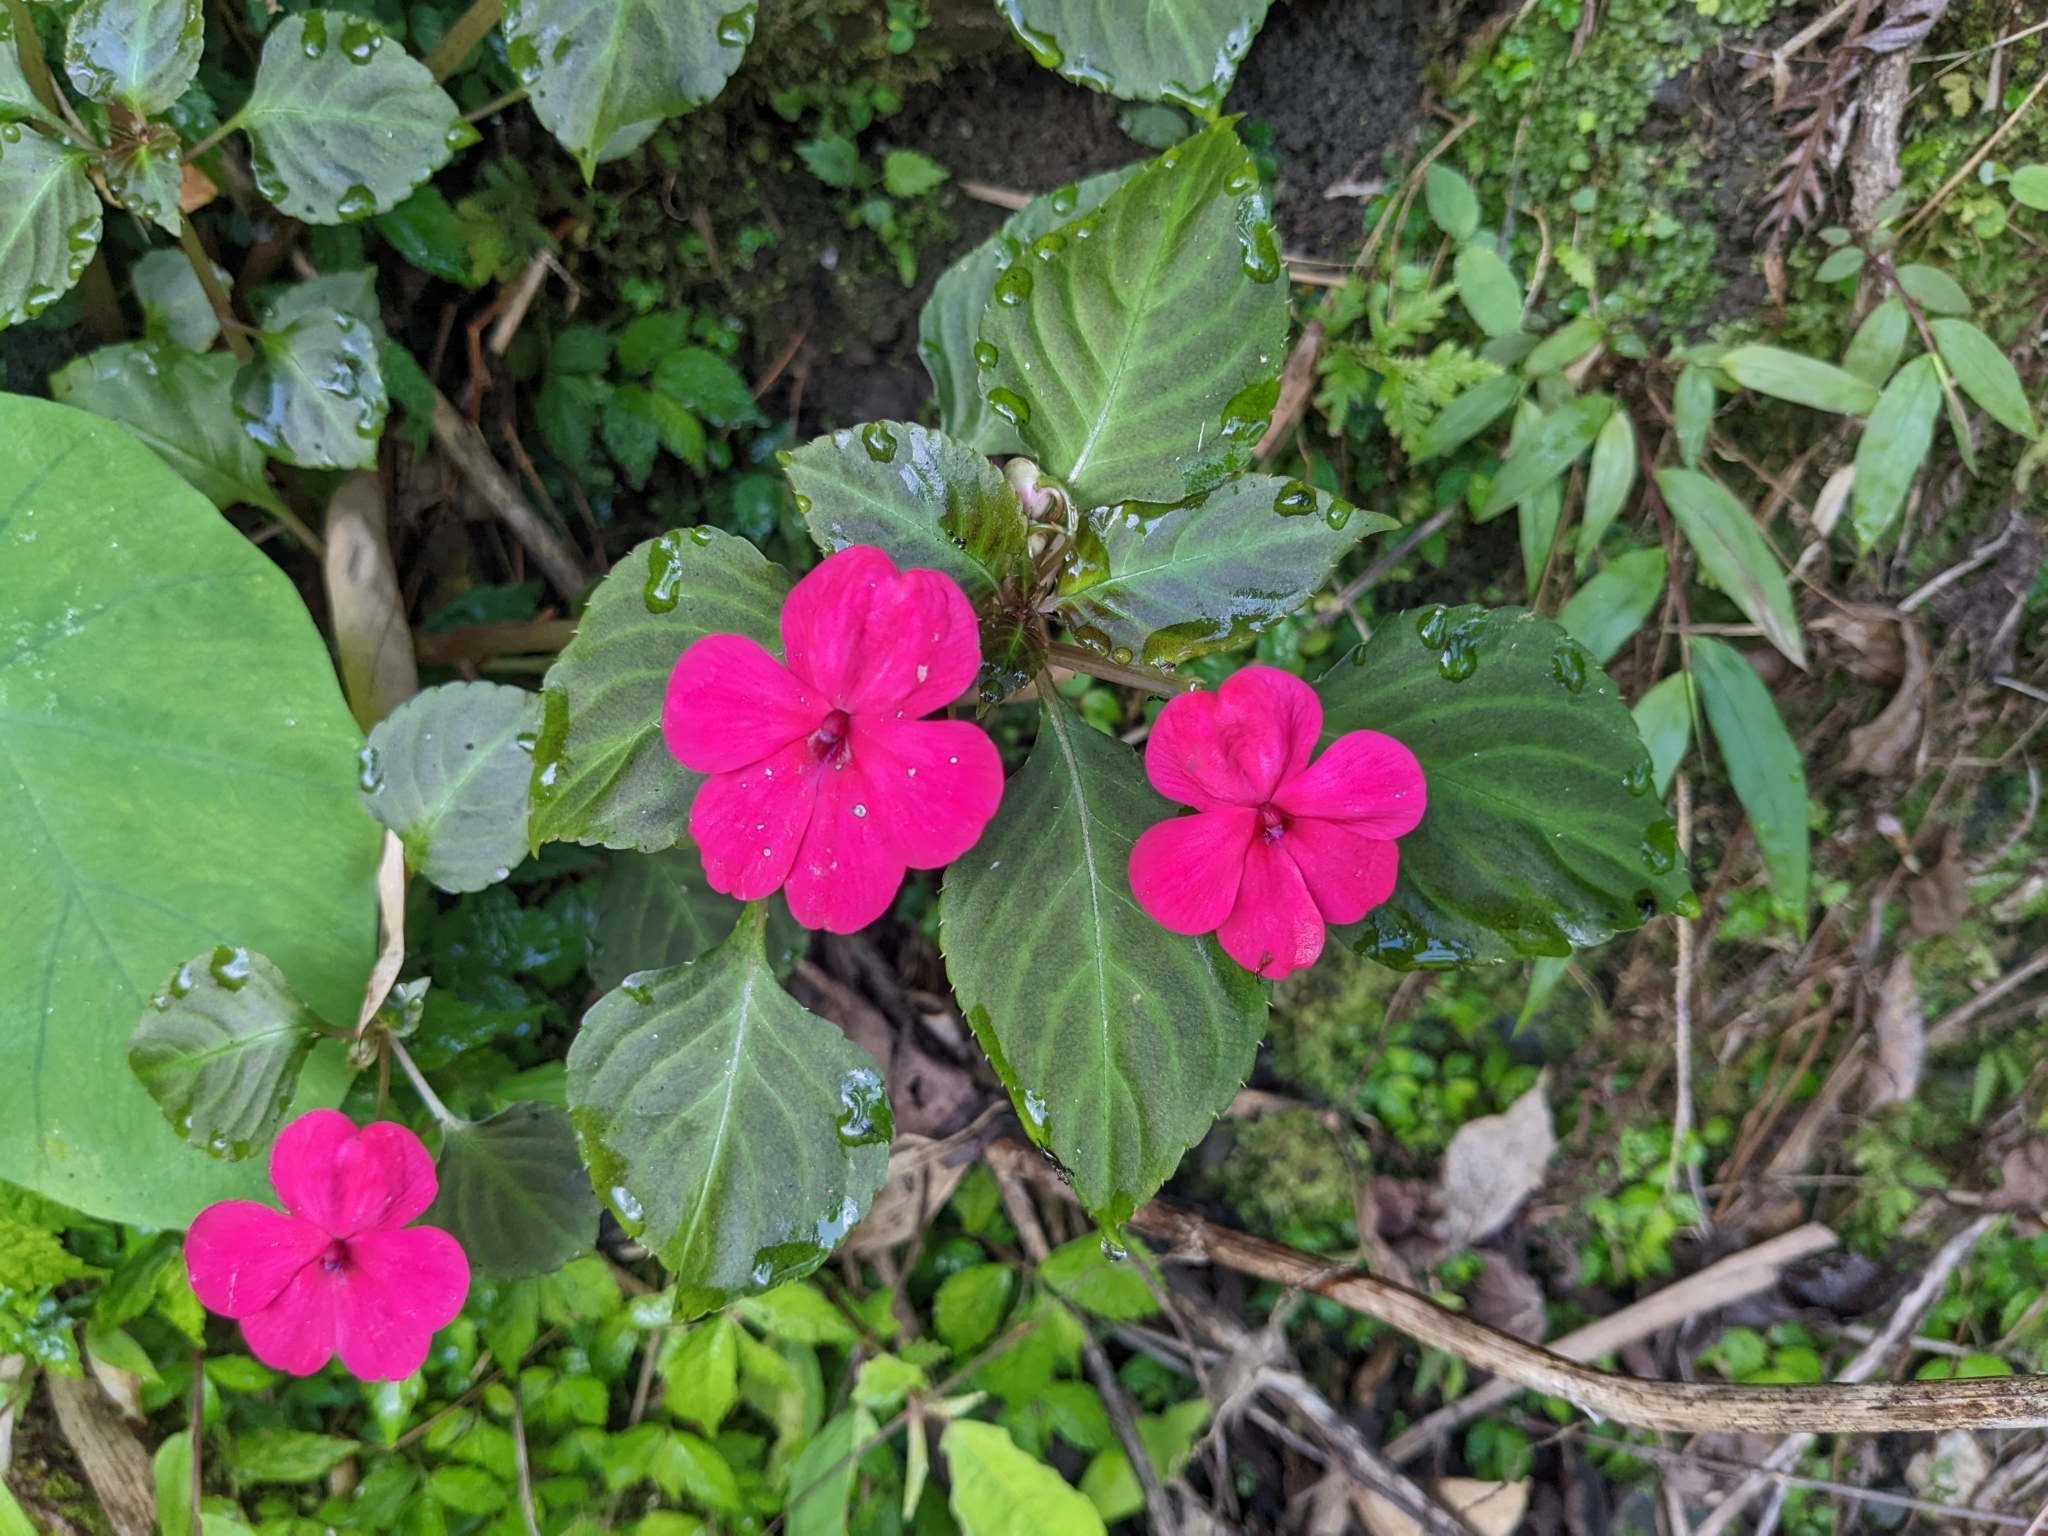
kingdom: Plantae
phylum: Tracheophyta
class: Magnoliopsida
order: Ericales
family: Balsaminaceae
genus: Impatiens
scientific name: Impatiens walleriana
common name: Buzzy lizzy
